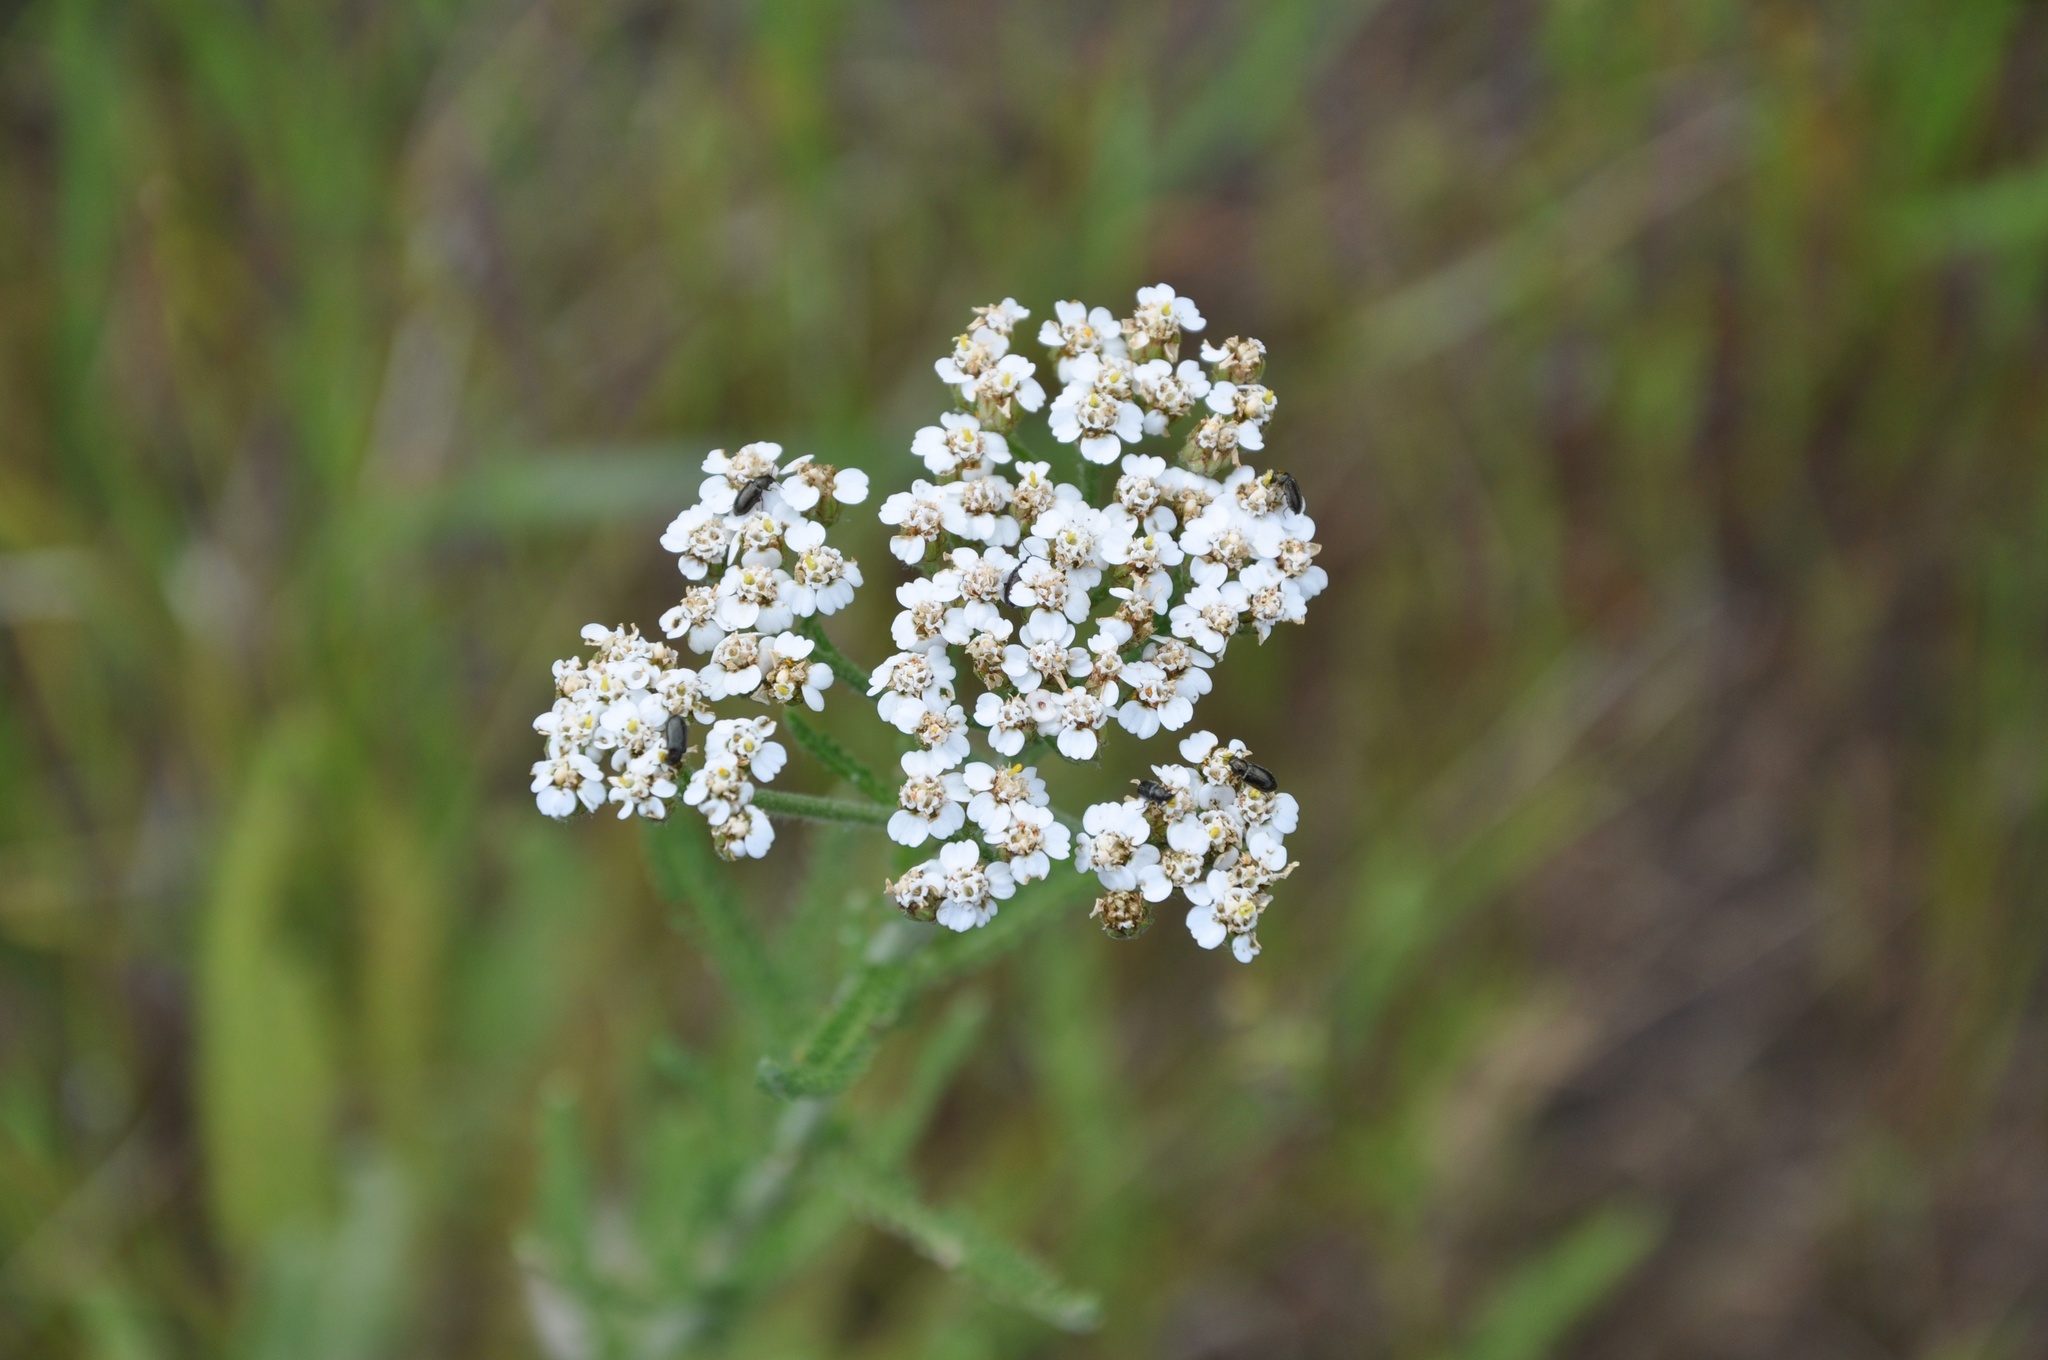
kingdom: Plantae
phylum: Tracheophyta
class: Magnoliopsida
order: Asterales
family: Asteraceae
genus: Achillea
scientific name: Achillea millefolium
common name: Yarrow
